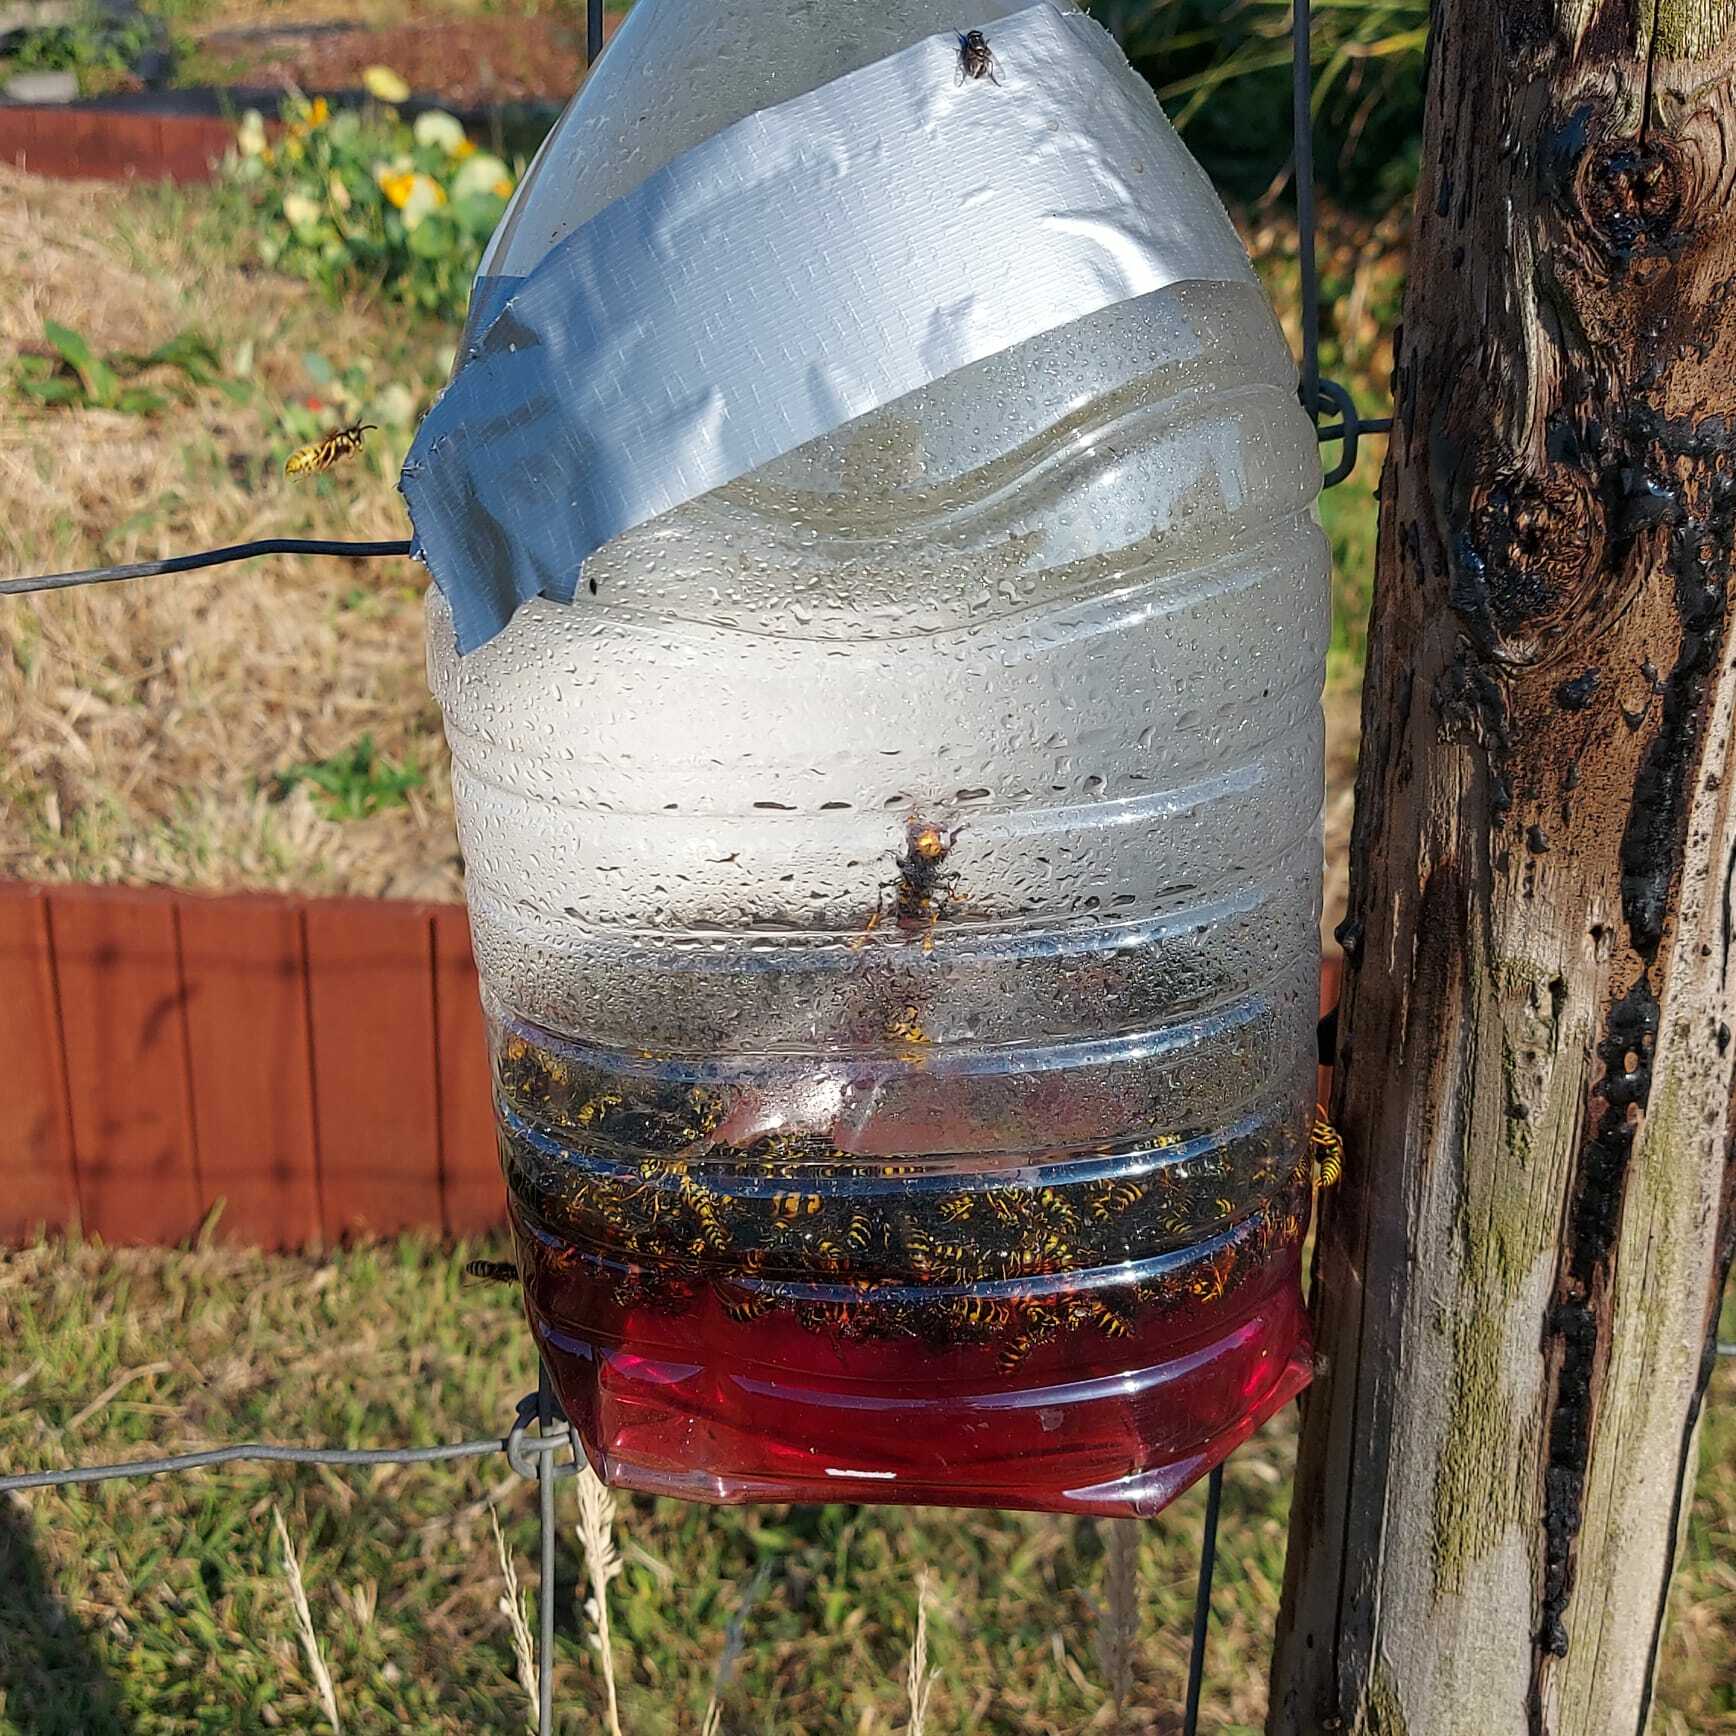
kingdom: Animalia
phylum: Arthropoda
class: Insecta
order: Hymenoptera
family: Vespidae
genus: Vespa
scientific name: Vespa velutina
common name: Asian hornet
